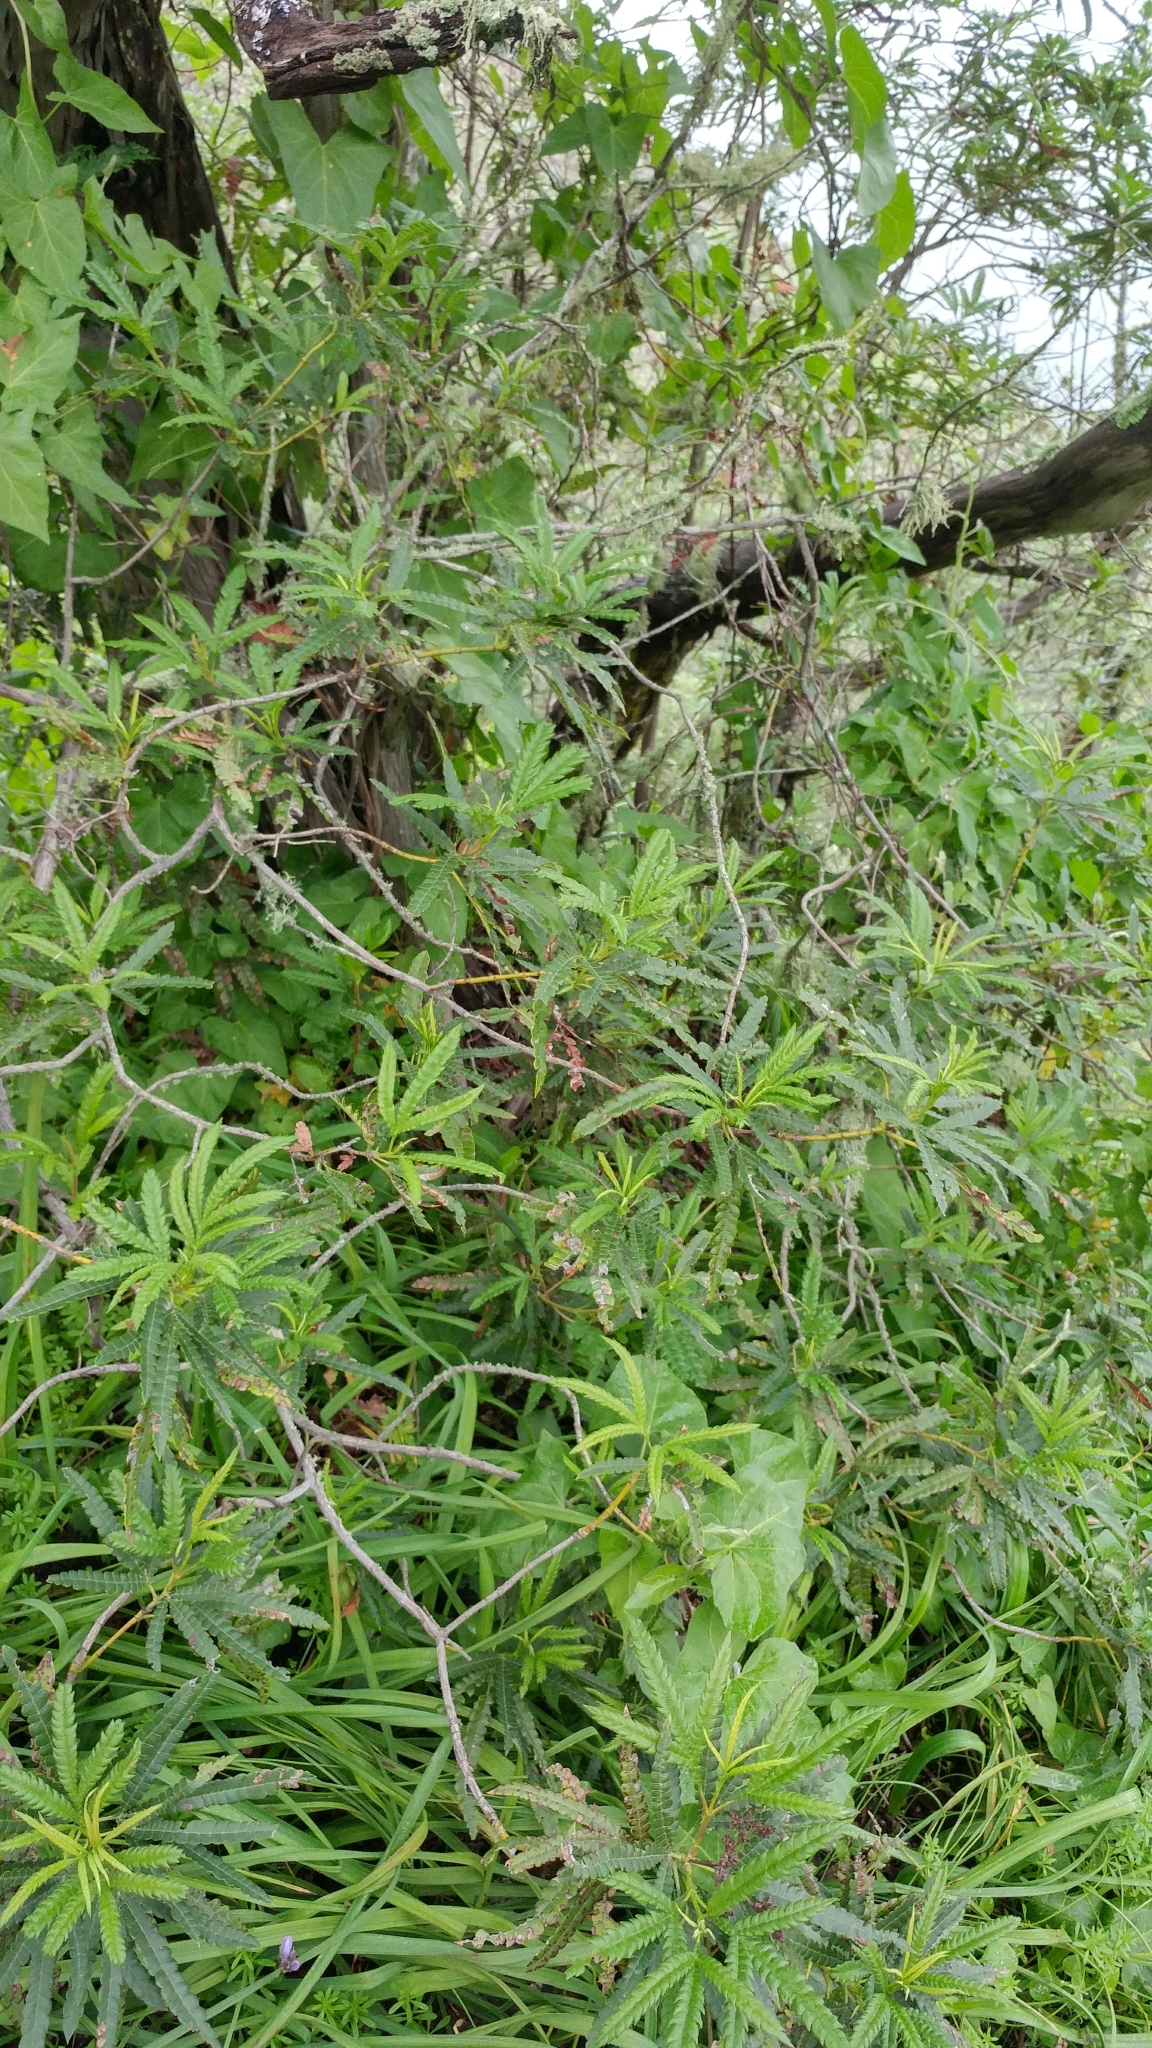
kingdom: Plantae
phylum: Tracheophyta
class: Magnoliopsida
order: Rosales
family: Rosaceae
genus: Lyonothamnus
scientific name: Lyonothamnus floribundus
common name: Catalina ironwood
